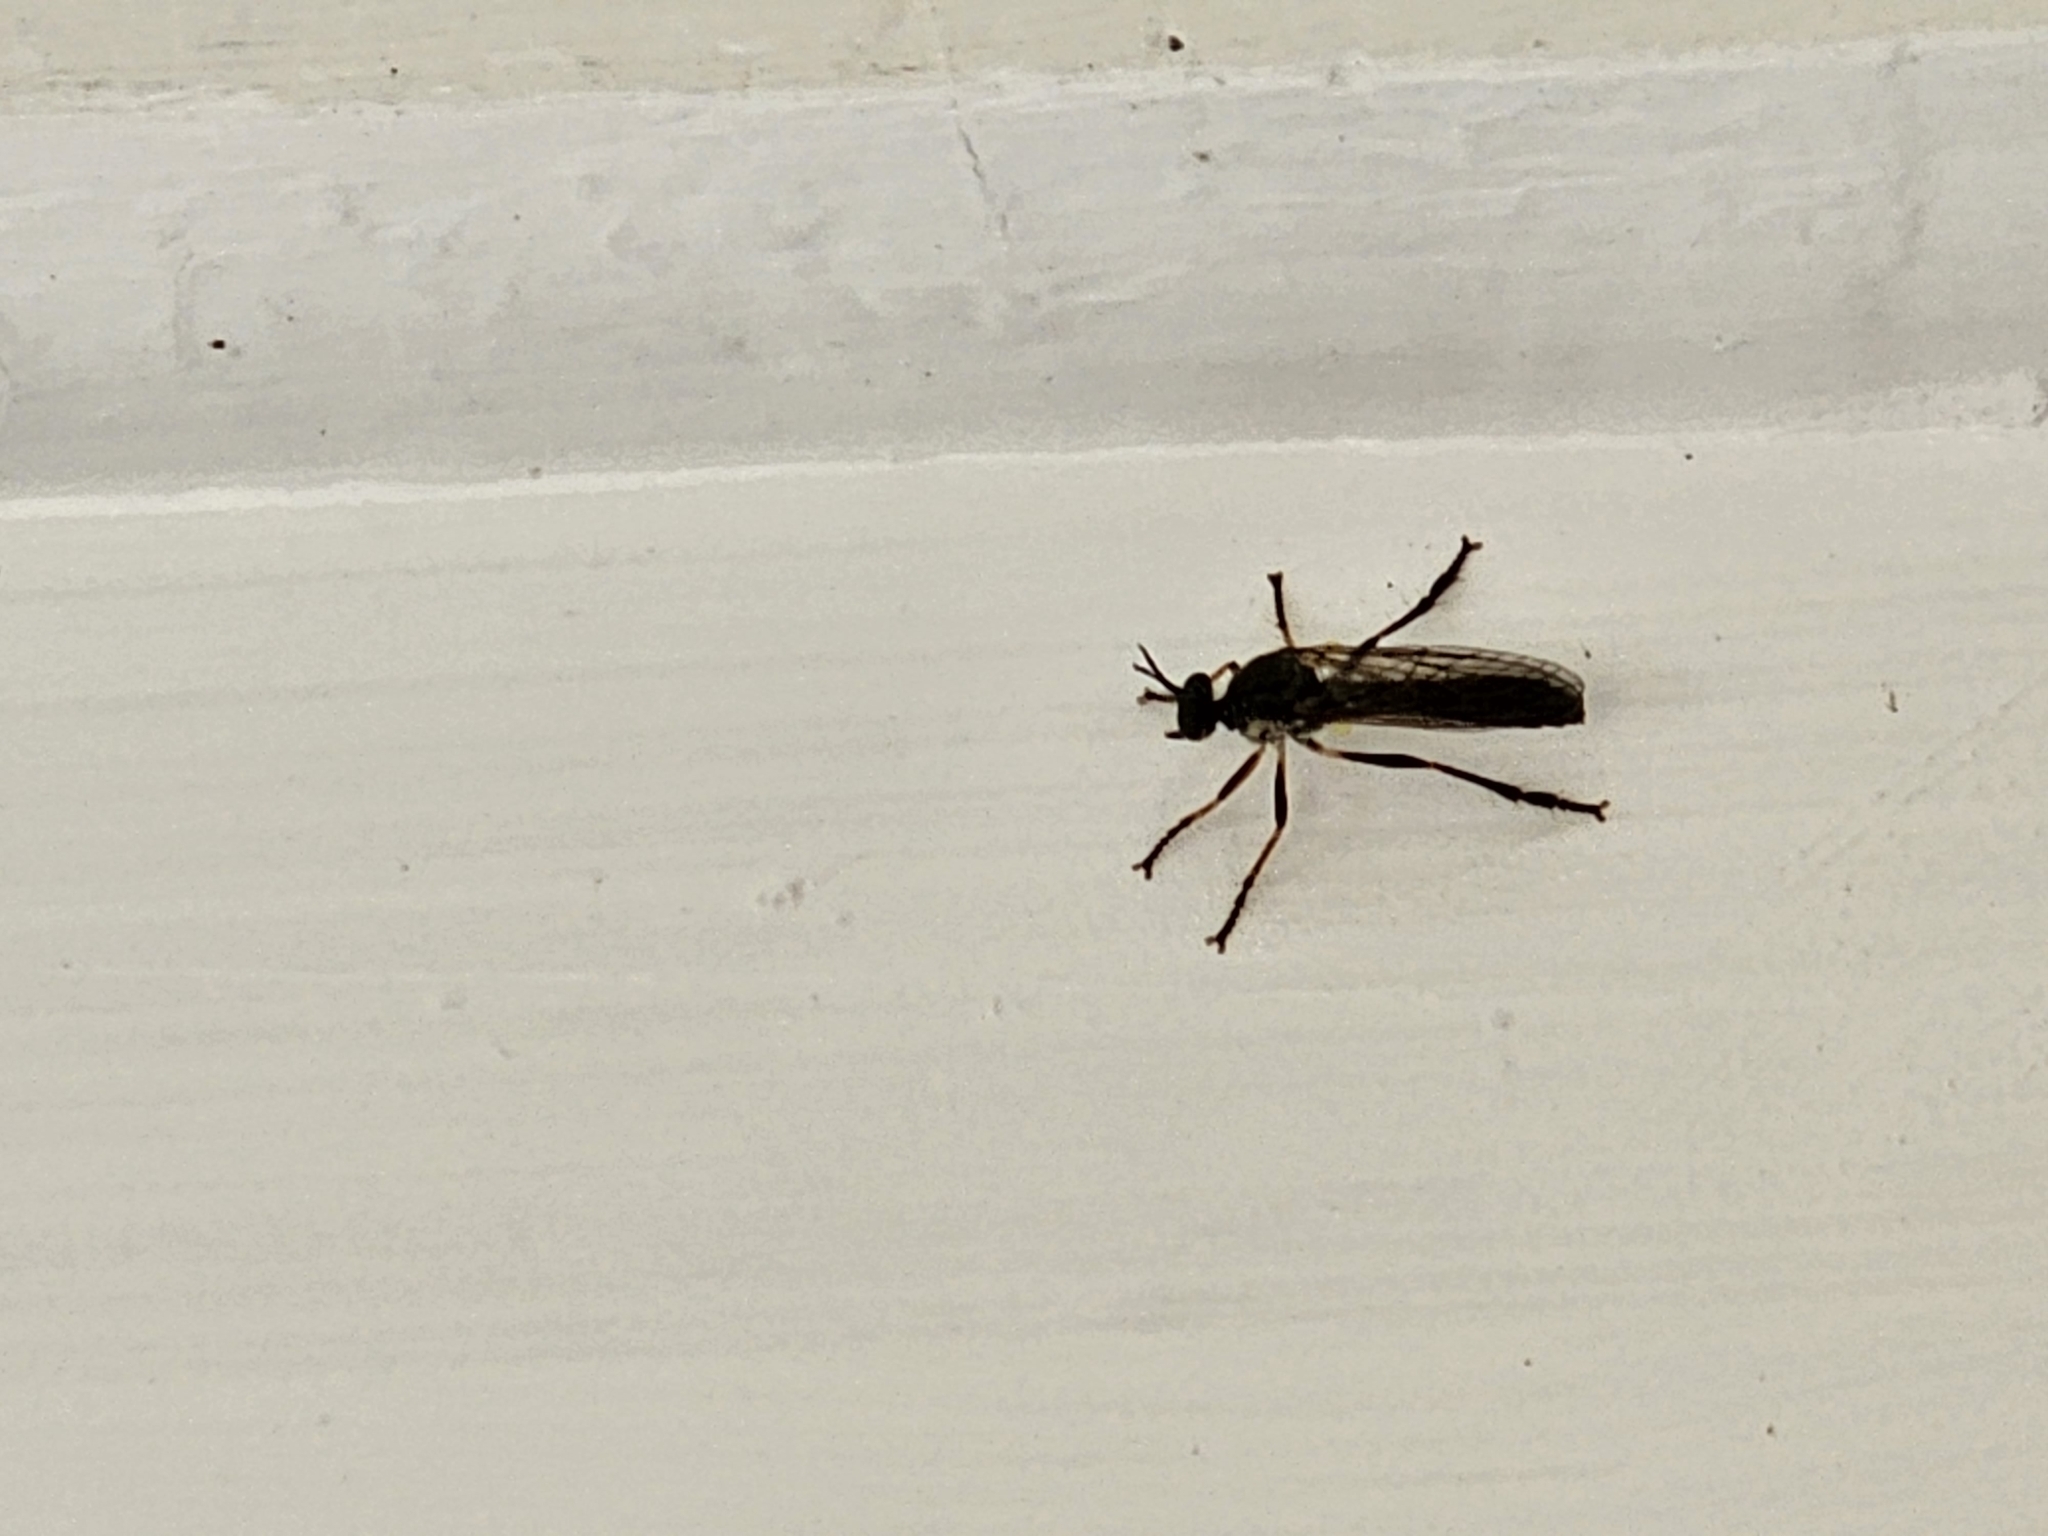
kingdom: Animalia
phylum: Arthropoda
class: Insecta
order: Diptera
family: Asilidae
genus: Dioctria
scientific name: Dioctria hyalipennis
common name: Stripe-legged robberfly
